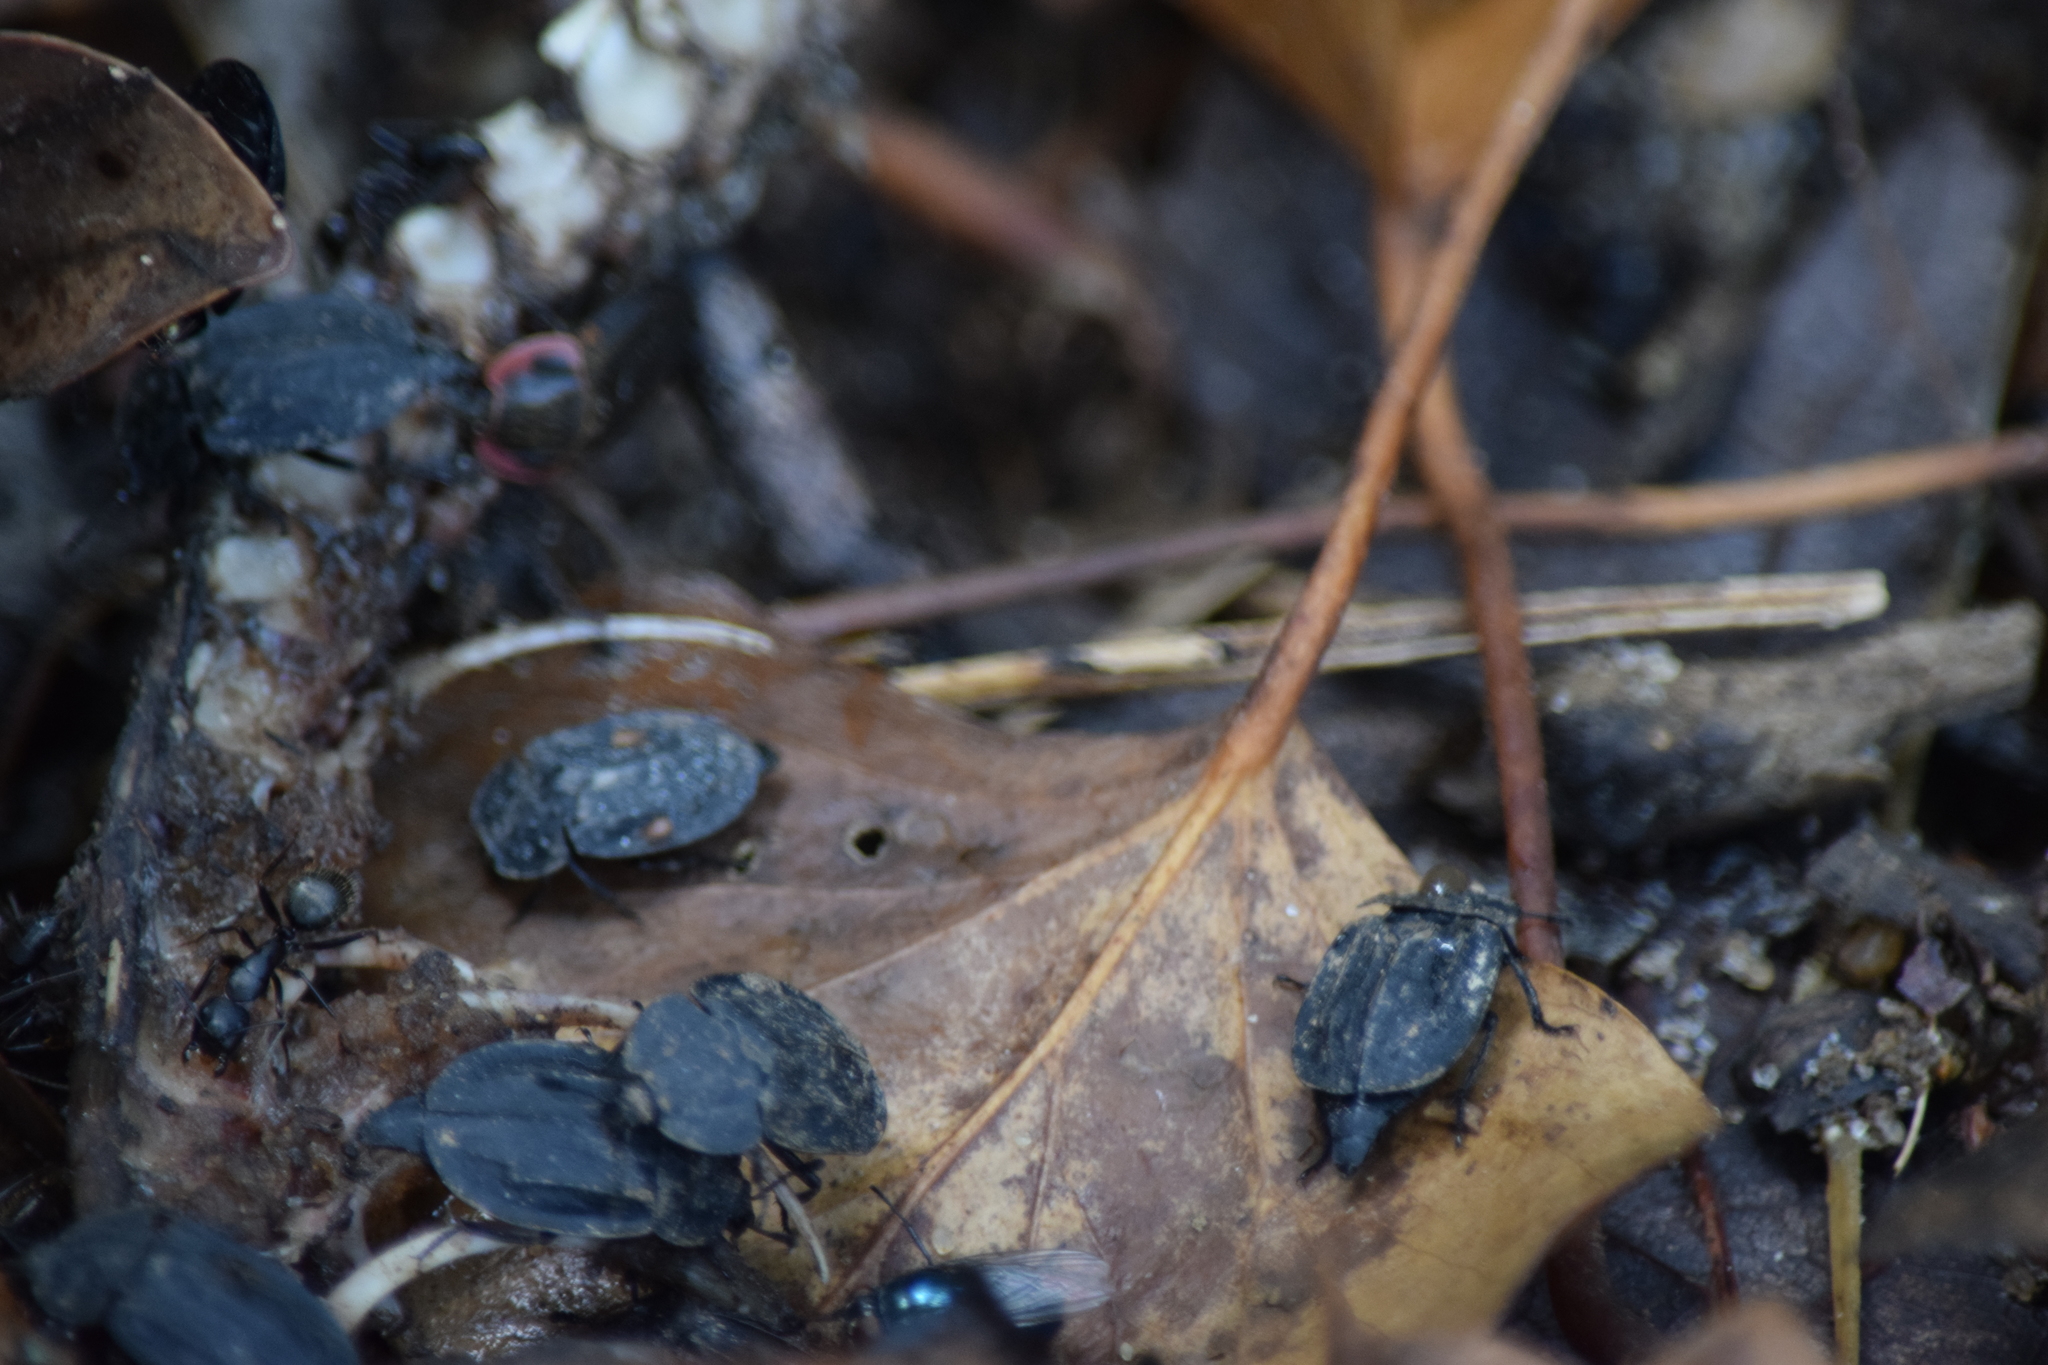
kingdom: Animalia
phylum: Arthropoda
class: Insecta
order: Coleoptera
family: Staphylinidae
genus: Oiceoptoma
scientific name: Oiceoptoma inaequale
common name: Ridged carrion beetle
